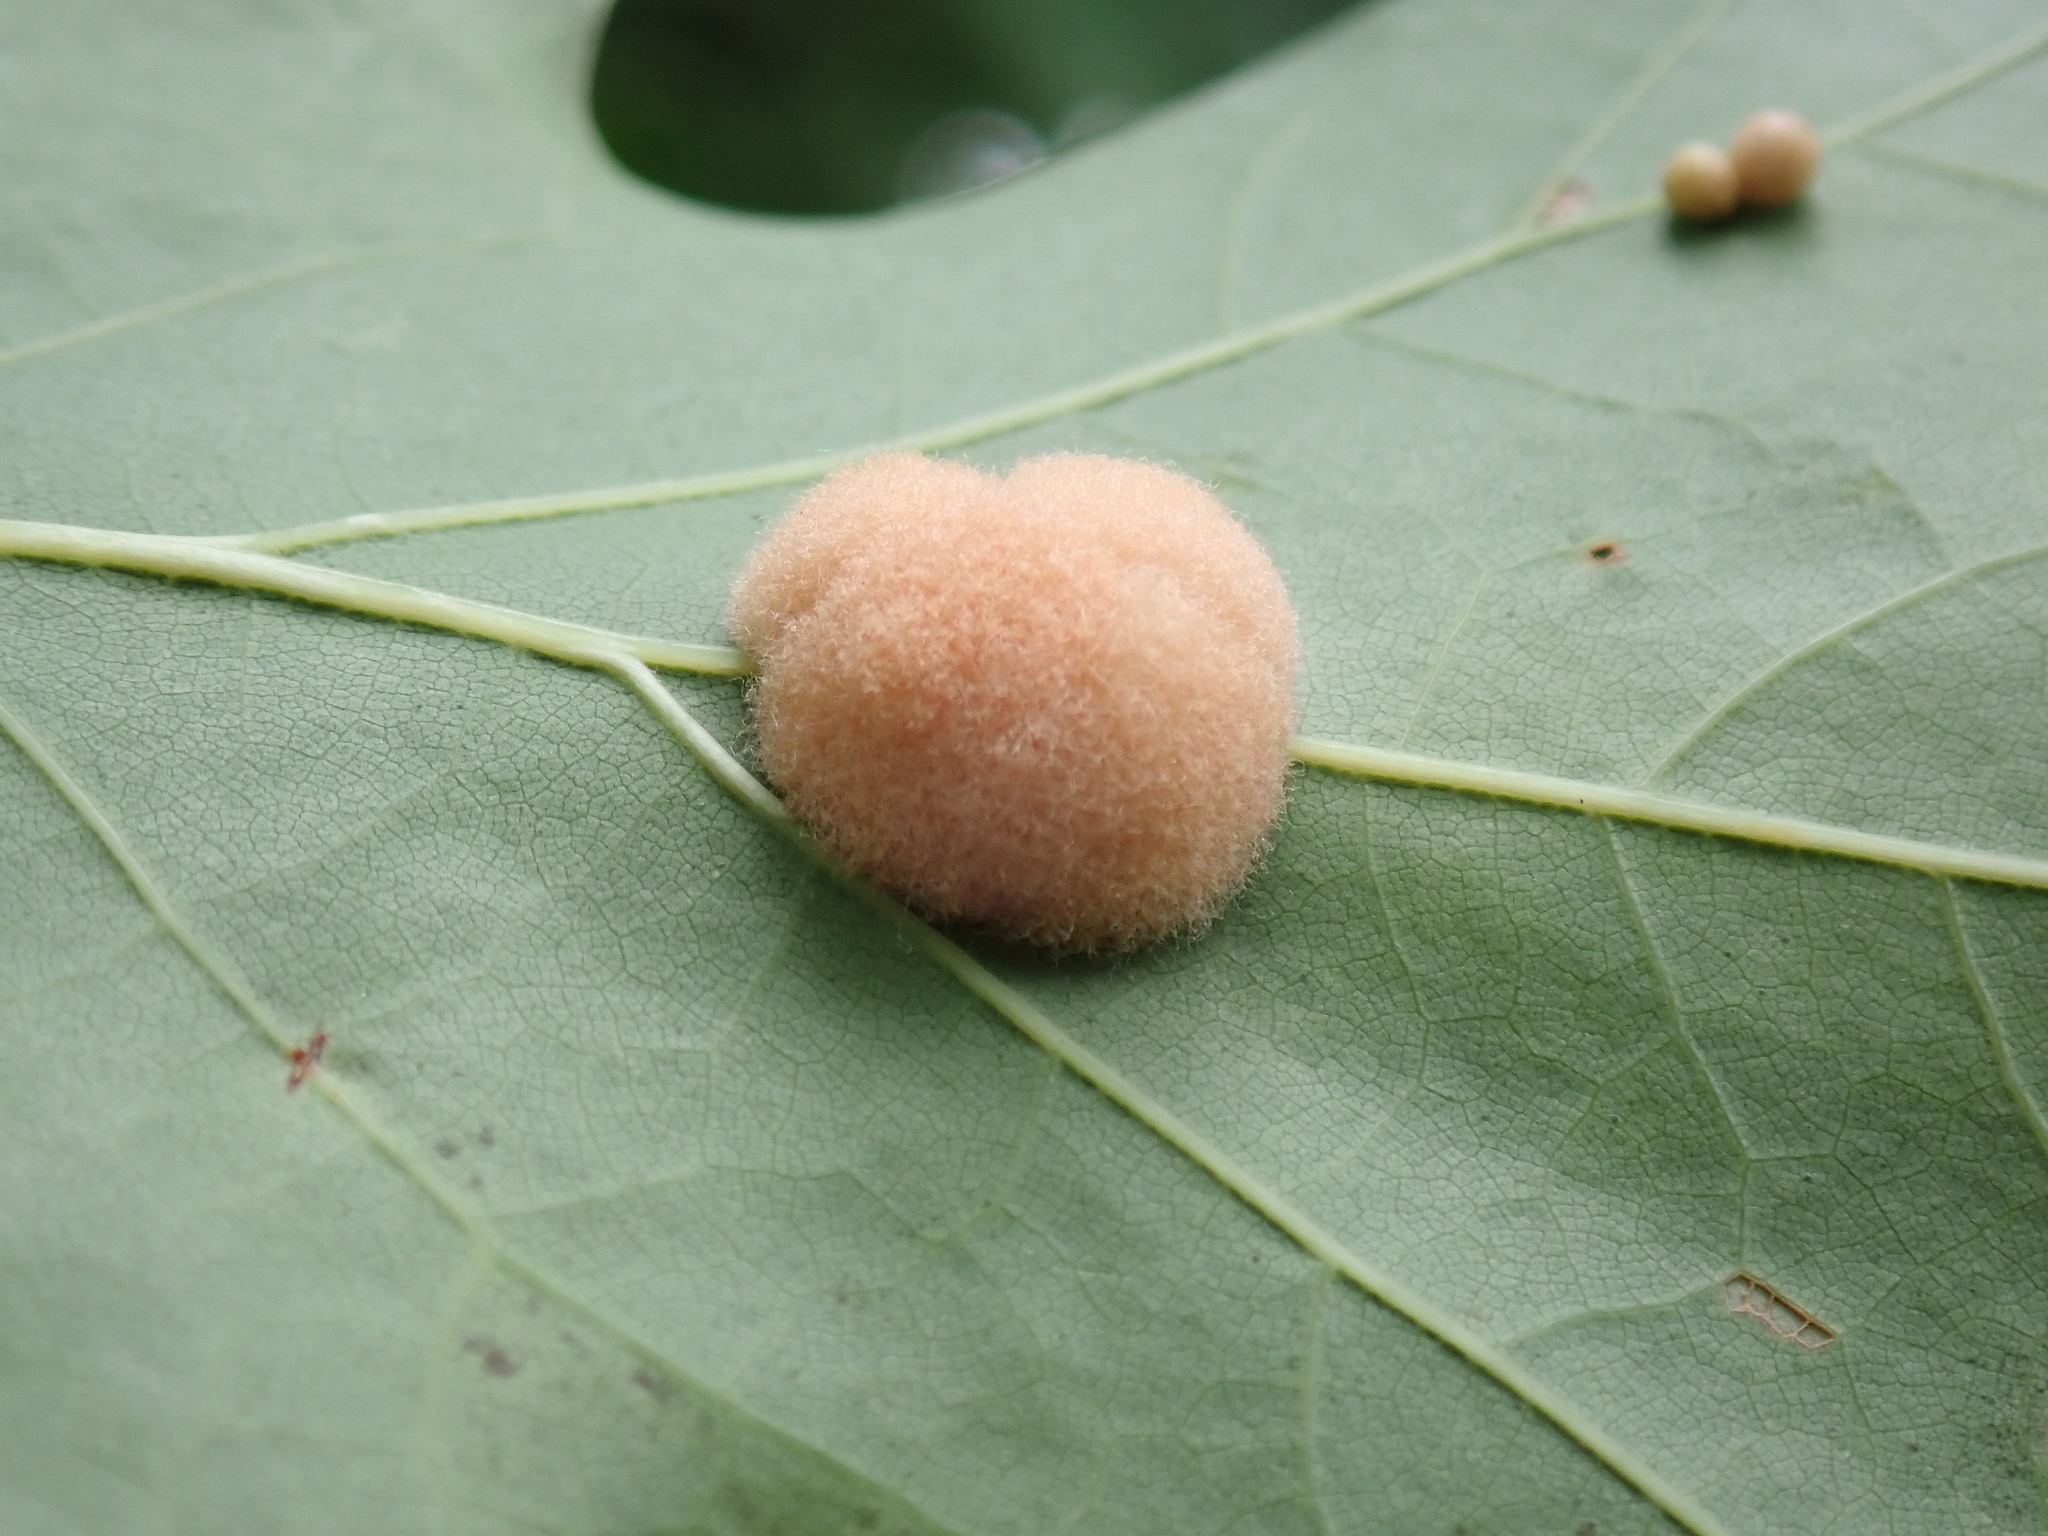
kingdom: Animalia
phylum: Arthropoda
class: Insecta
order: Hymenoptera
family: Cynipidae
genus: Callirhytis
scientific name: Callirhytis
